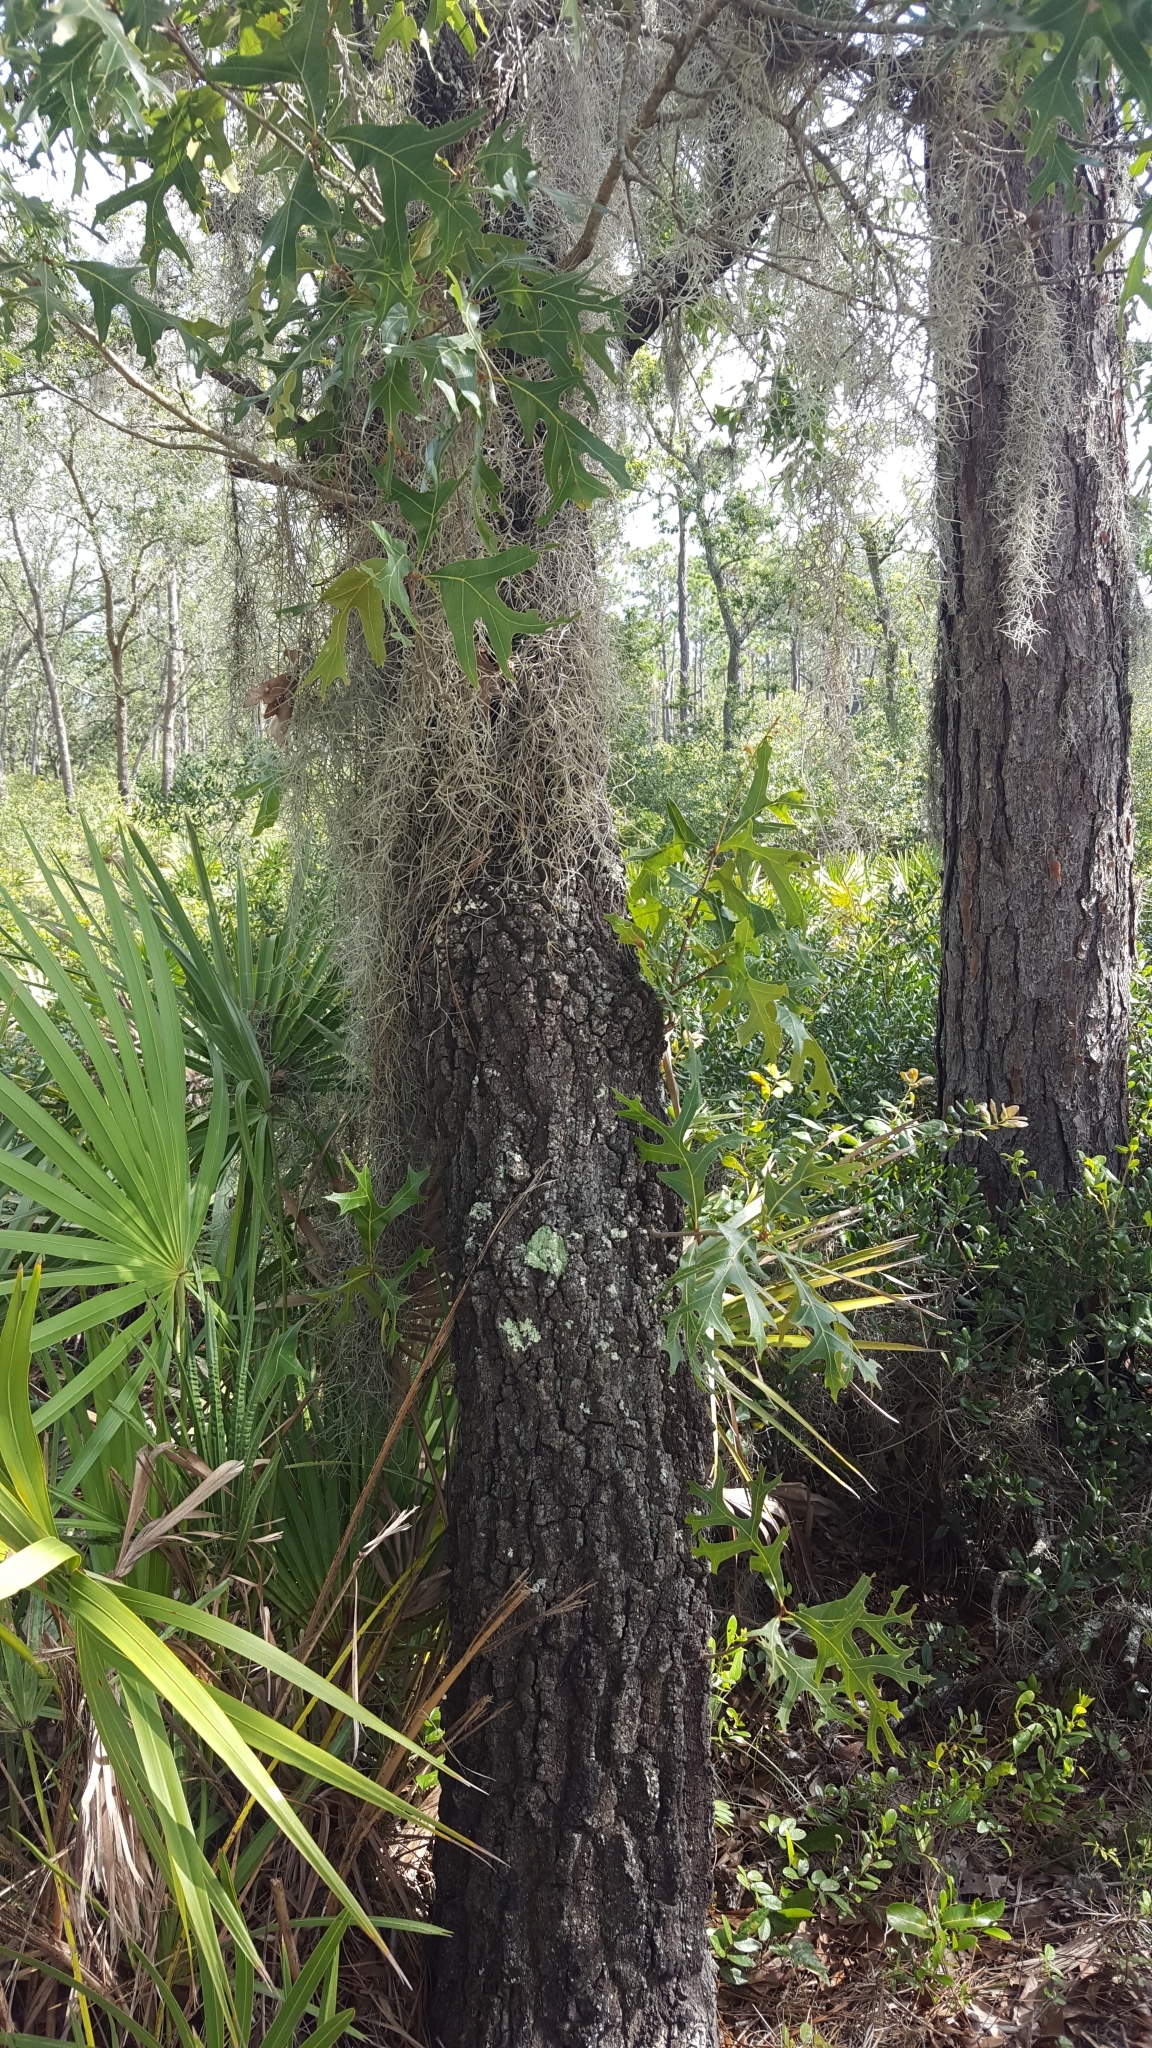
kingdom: Plantae
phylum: Tracheophyta
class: Magnoliopsida
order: Fagales
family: Fagaceae
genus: Quercus
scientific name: Quercus laevis
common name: Turkey oak
